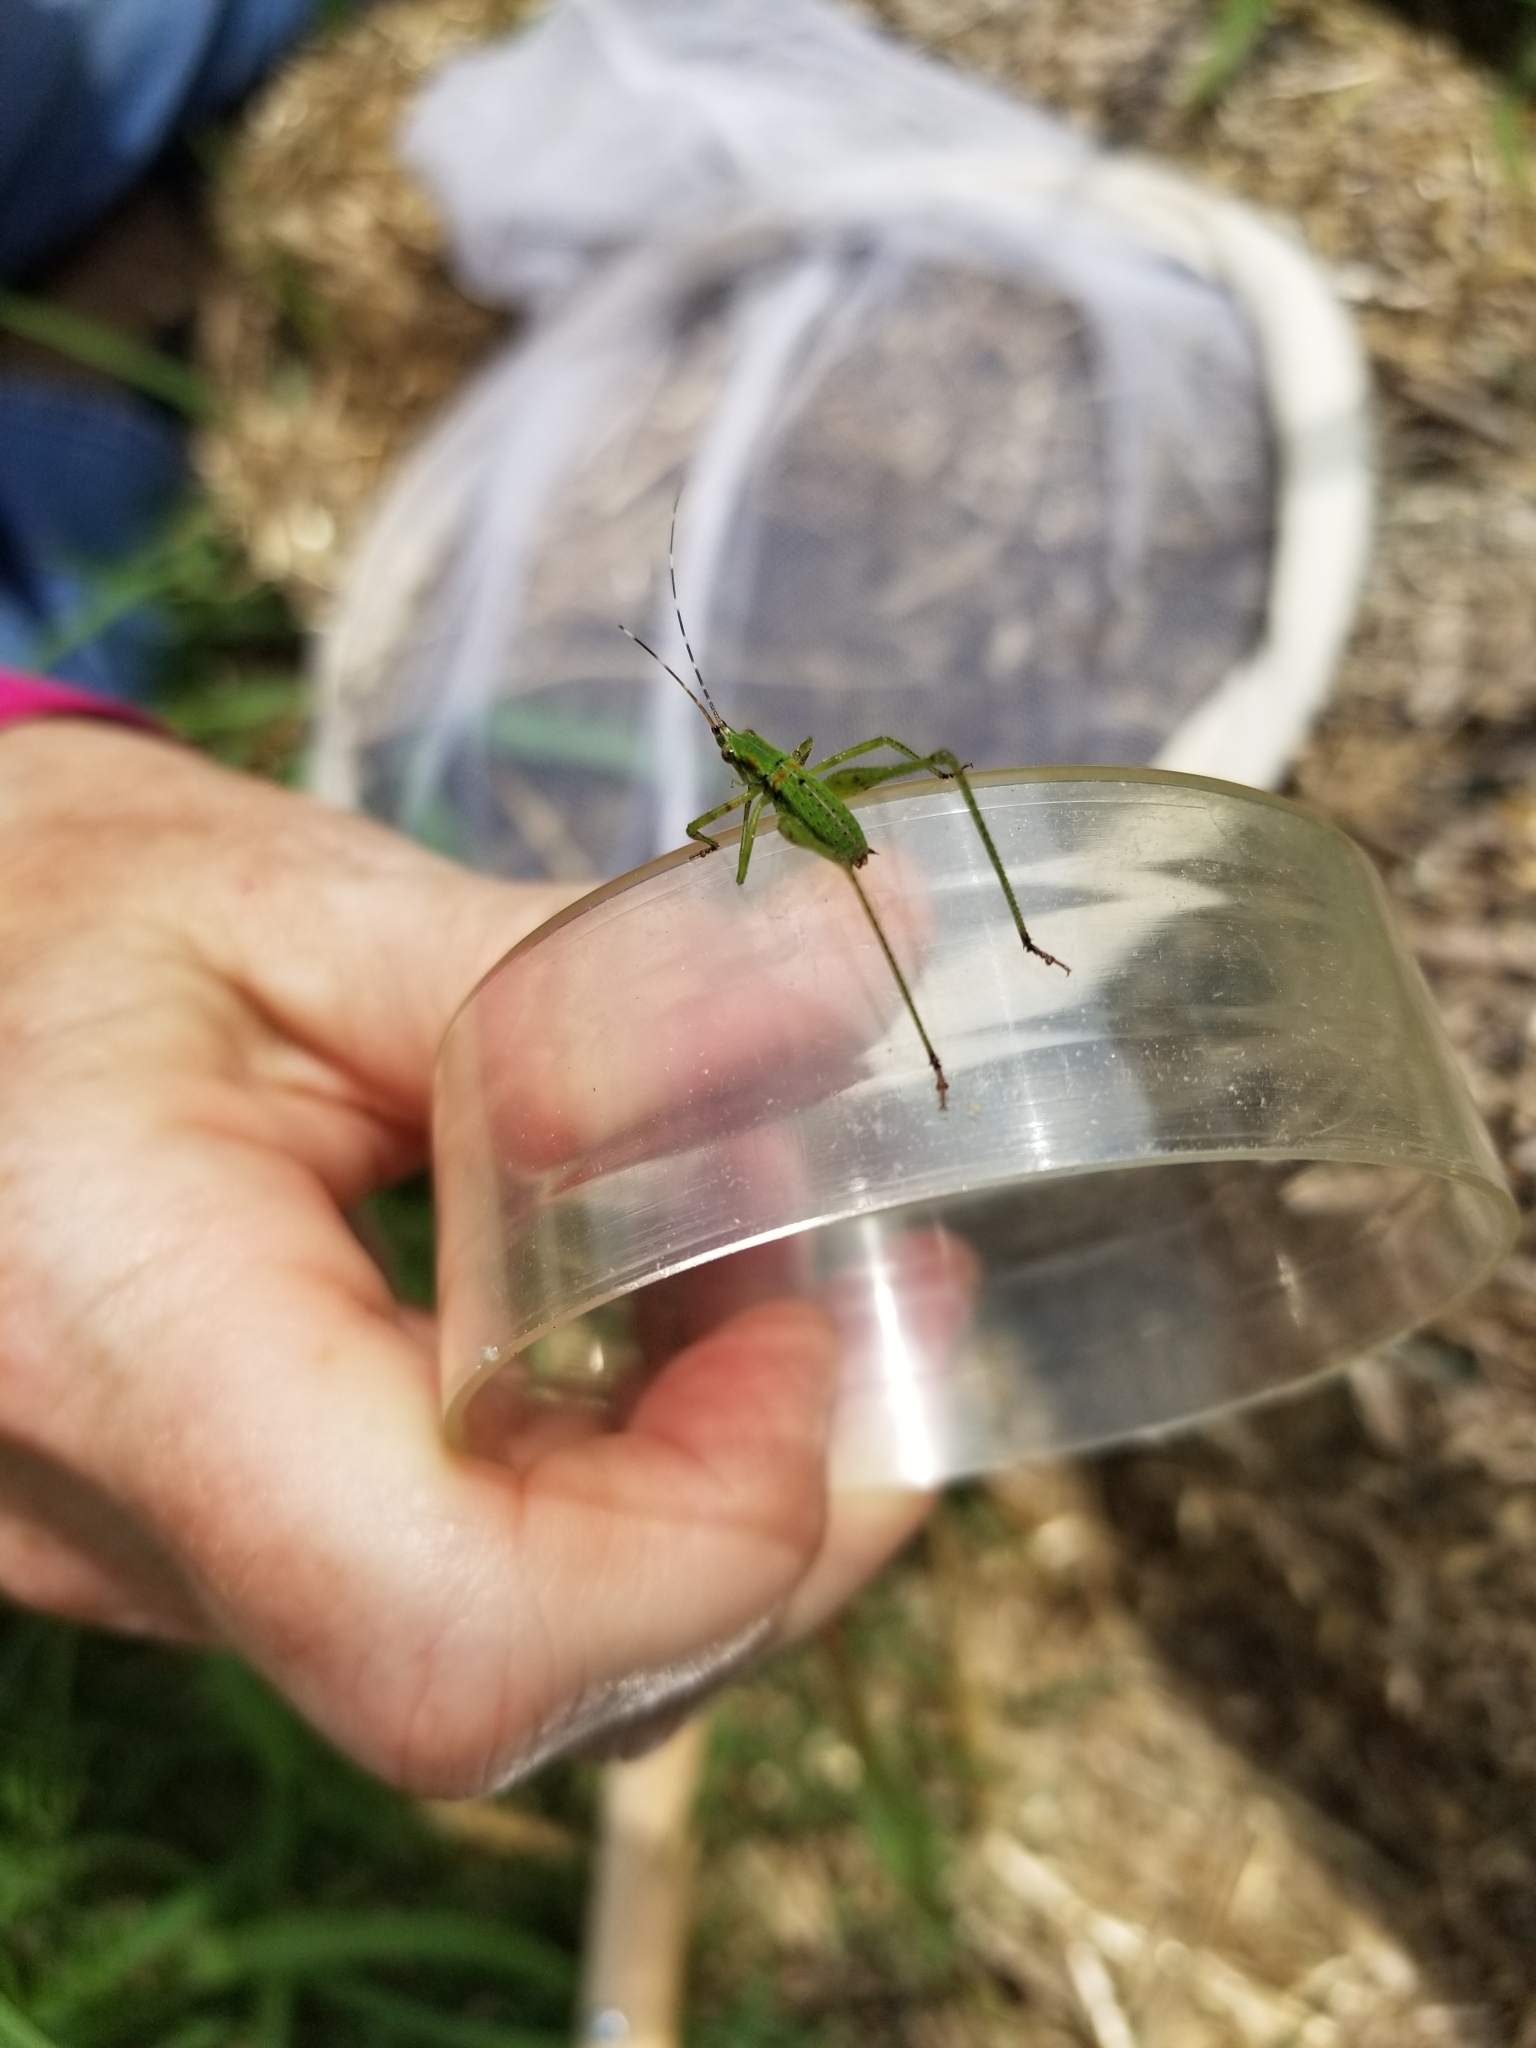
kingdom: Animalia
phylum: Arthropoda
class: Insecta
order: Orthoptera
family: Tettigoniidae
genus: Scudderia
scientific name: Scudderia furcata
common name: Fork-tailed bush katydid
